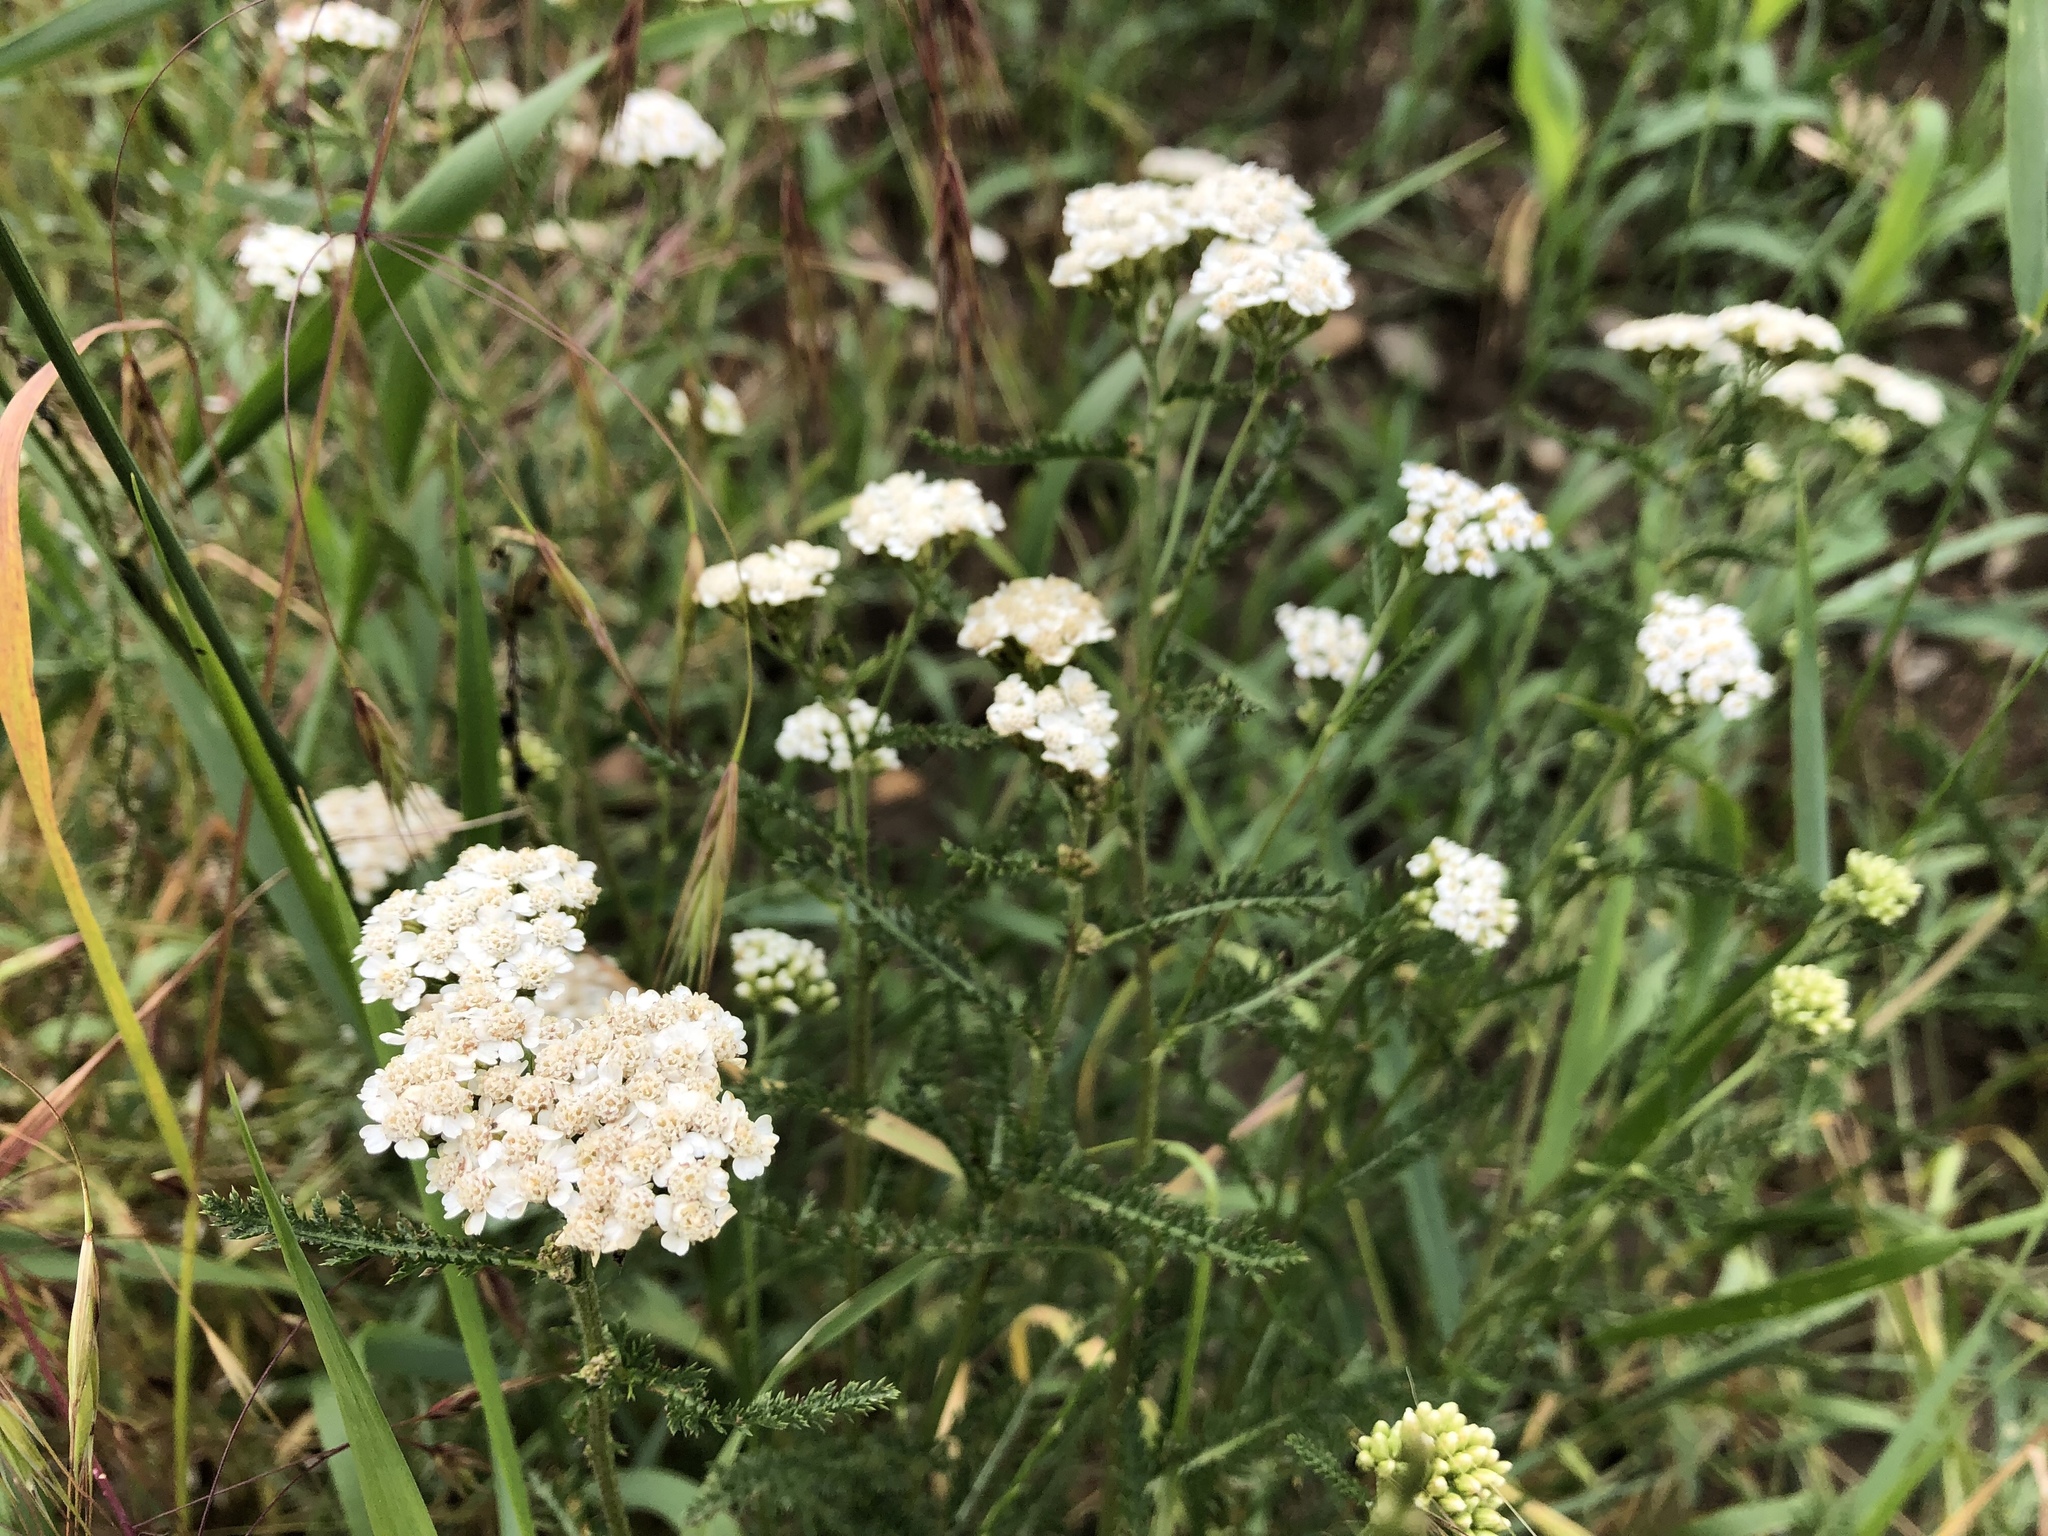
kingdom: Plantae
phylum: Tracheophyta
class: Magnoliopsida
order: Asterales
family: Asteraceae
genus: Achillea
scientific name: Achillea millefolium
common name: Yarrow
